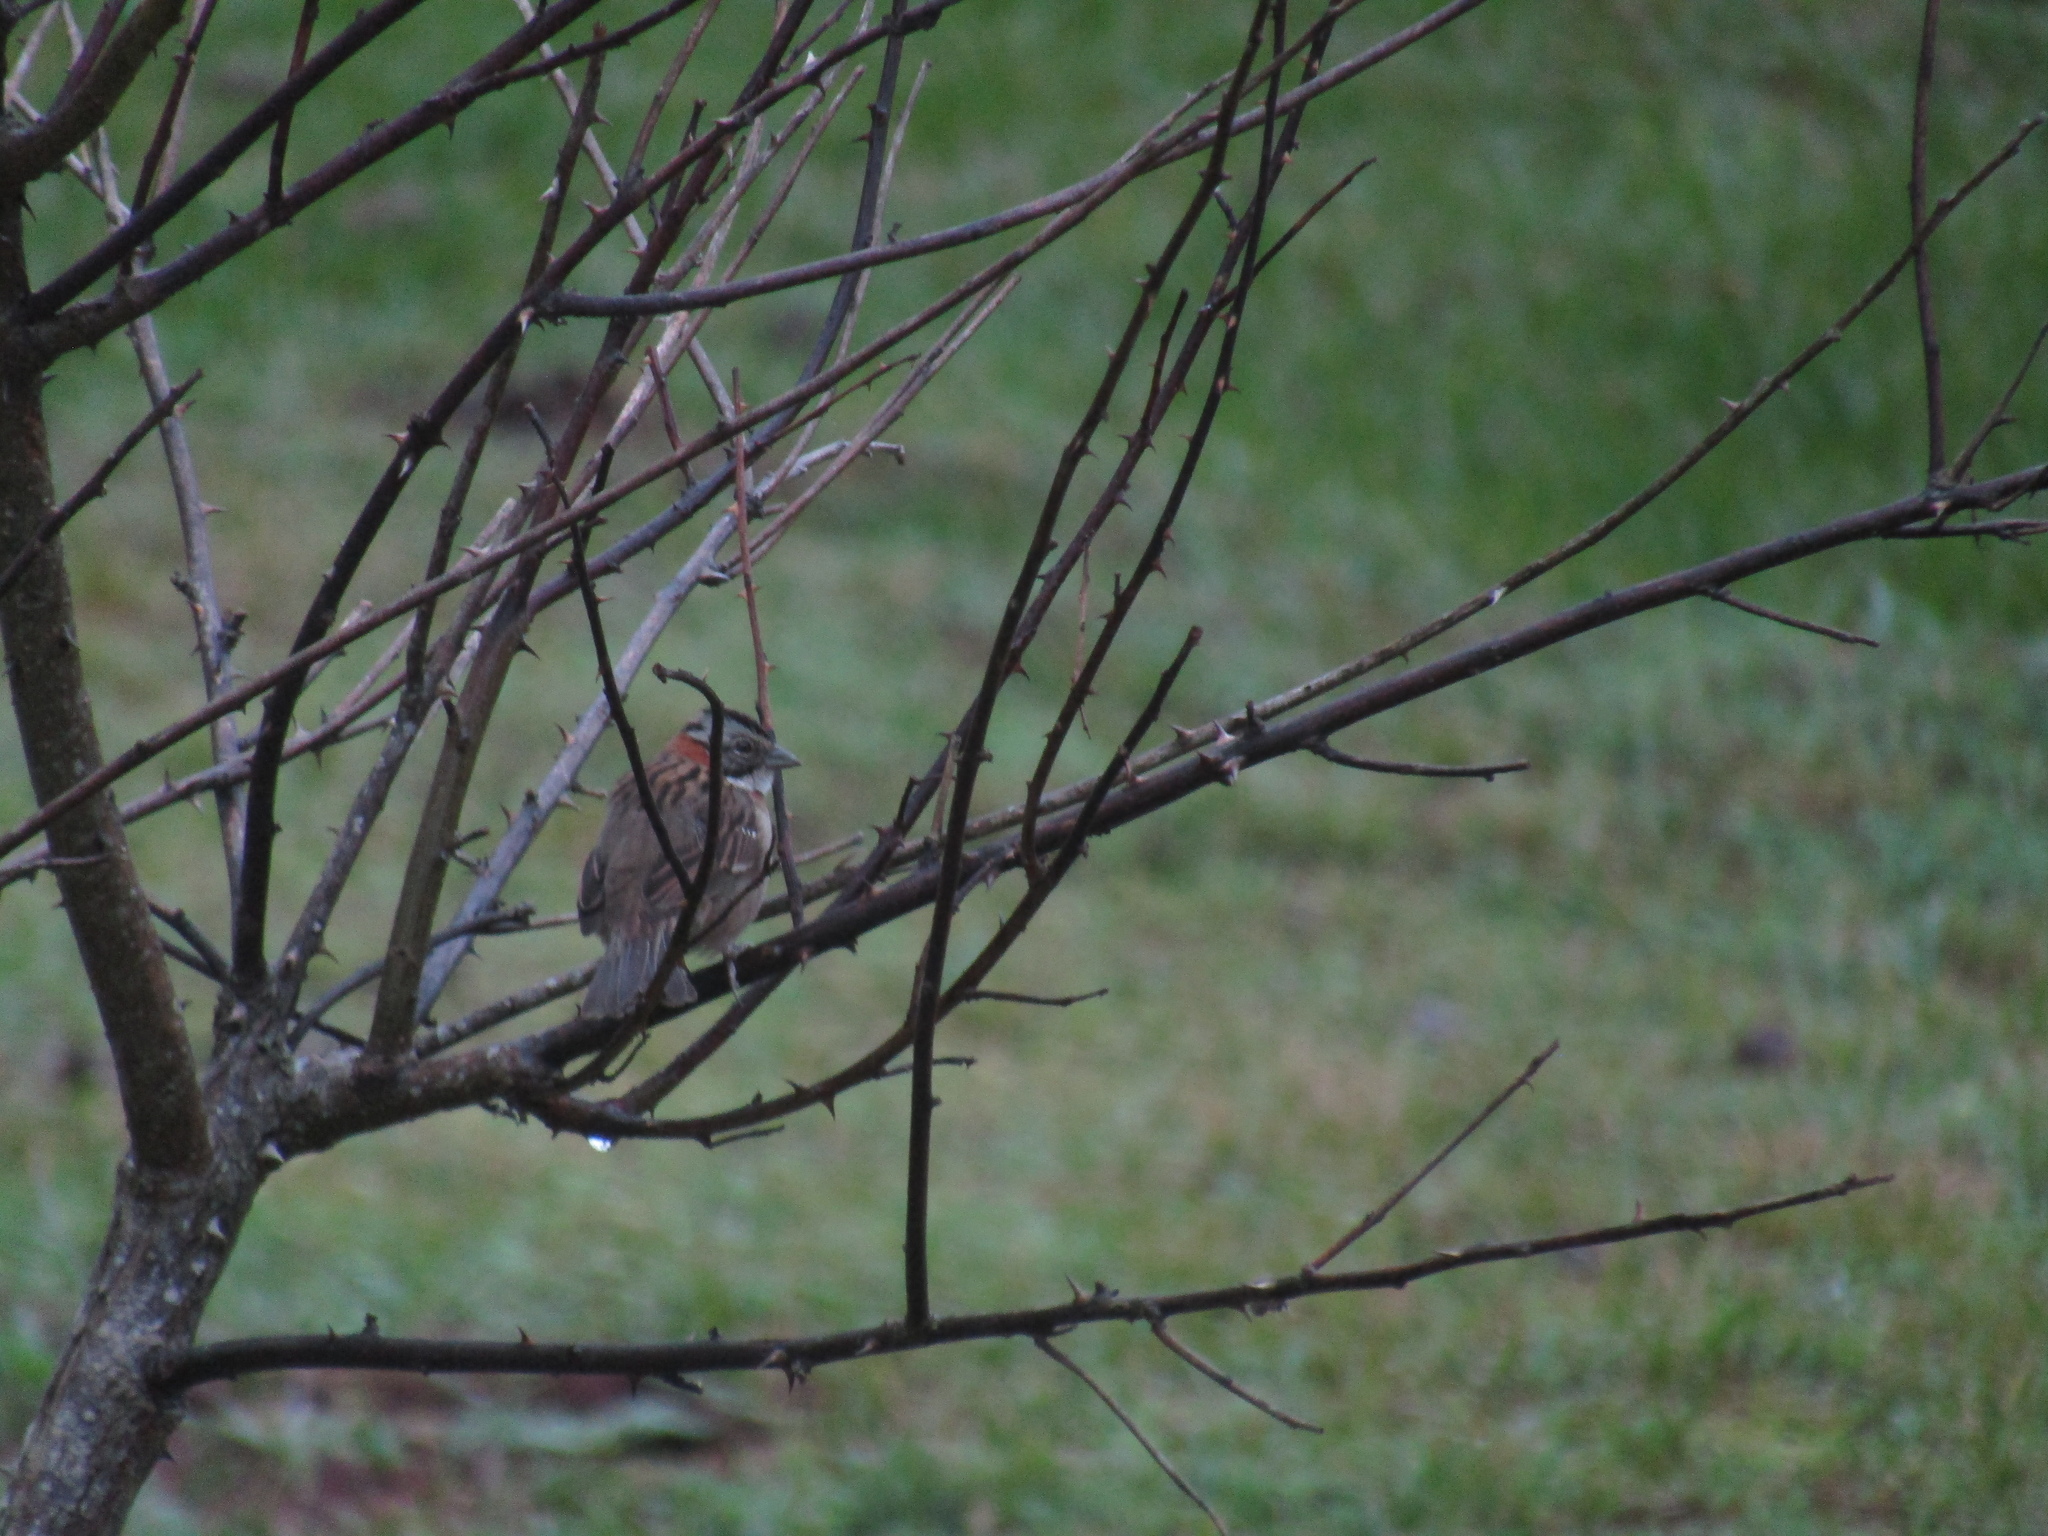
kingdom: Animalia
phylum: Chordata
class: Aves
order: Passeriformes
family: Passerellidae
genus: Zonotrichia
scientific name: Zonotrichia capensis
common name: Rufous-collared sparrow
